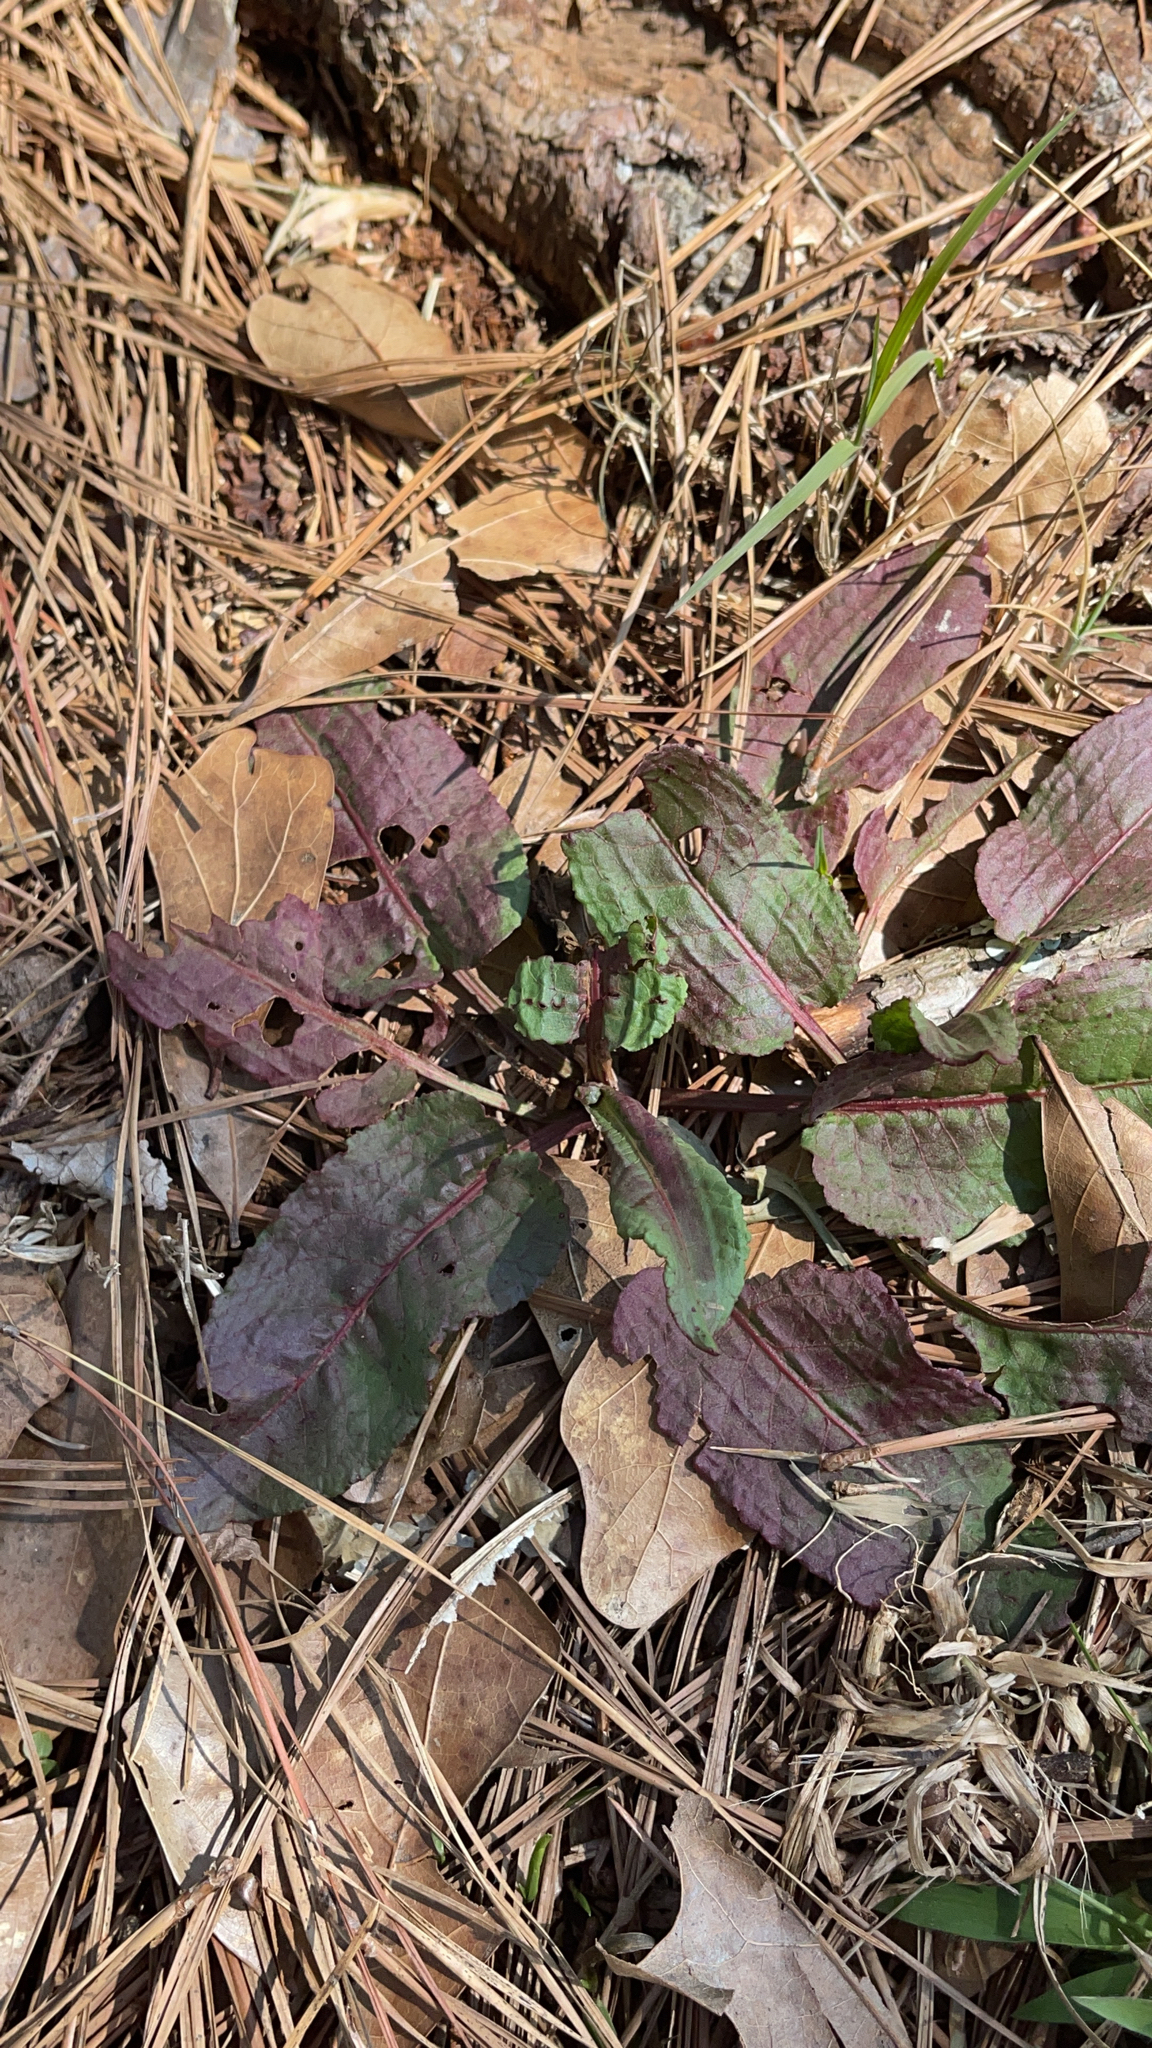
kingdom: Plantae
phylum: Tracheophyta
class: Magnoliopsida
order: Caryophyllales
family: Polygonaceae
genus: Rumex
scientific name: Rumex obtusifolius
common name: Bitter dock
